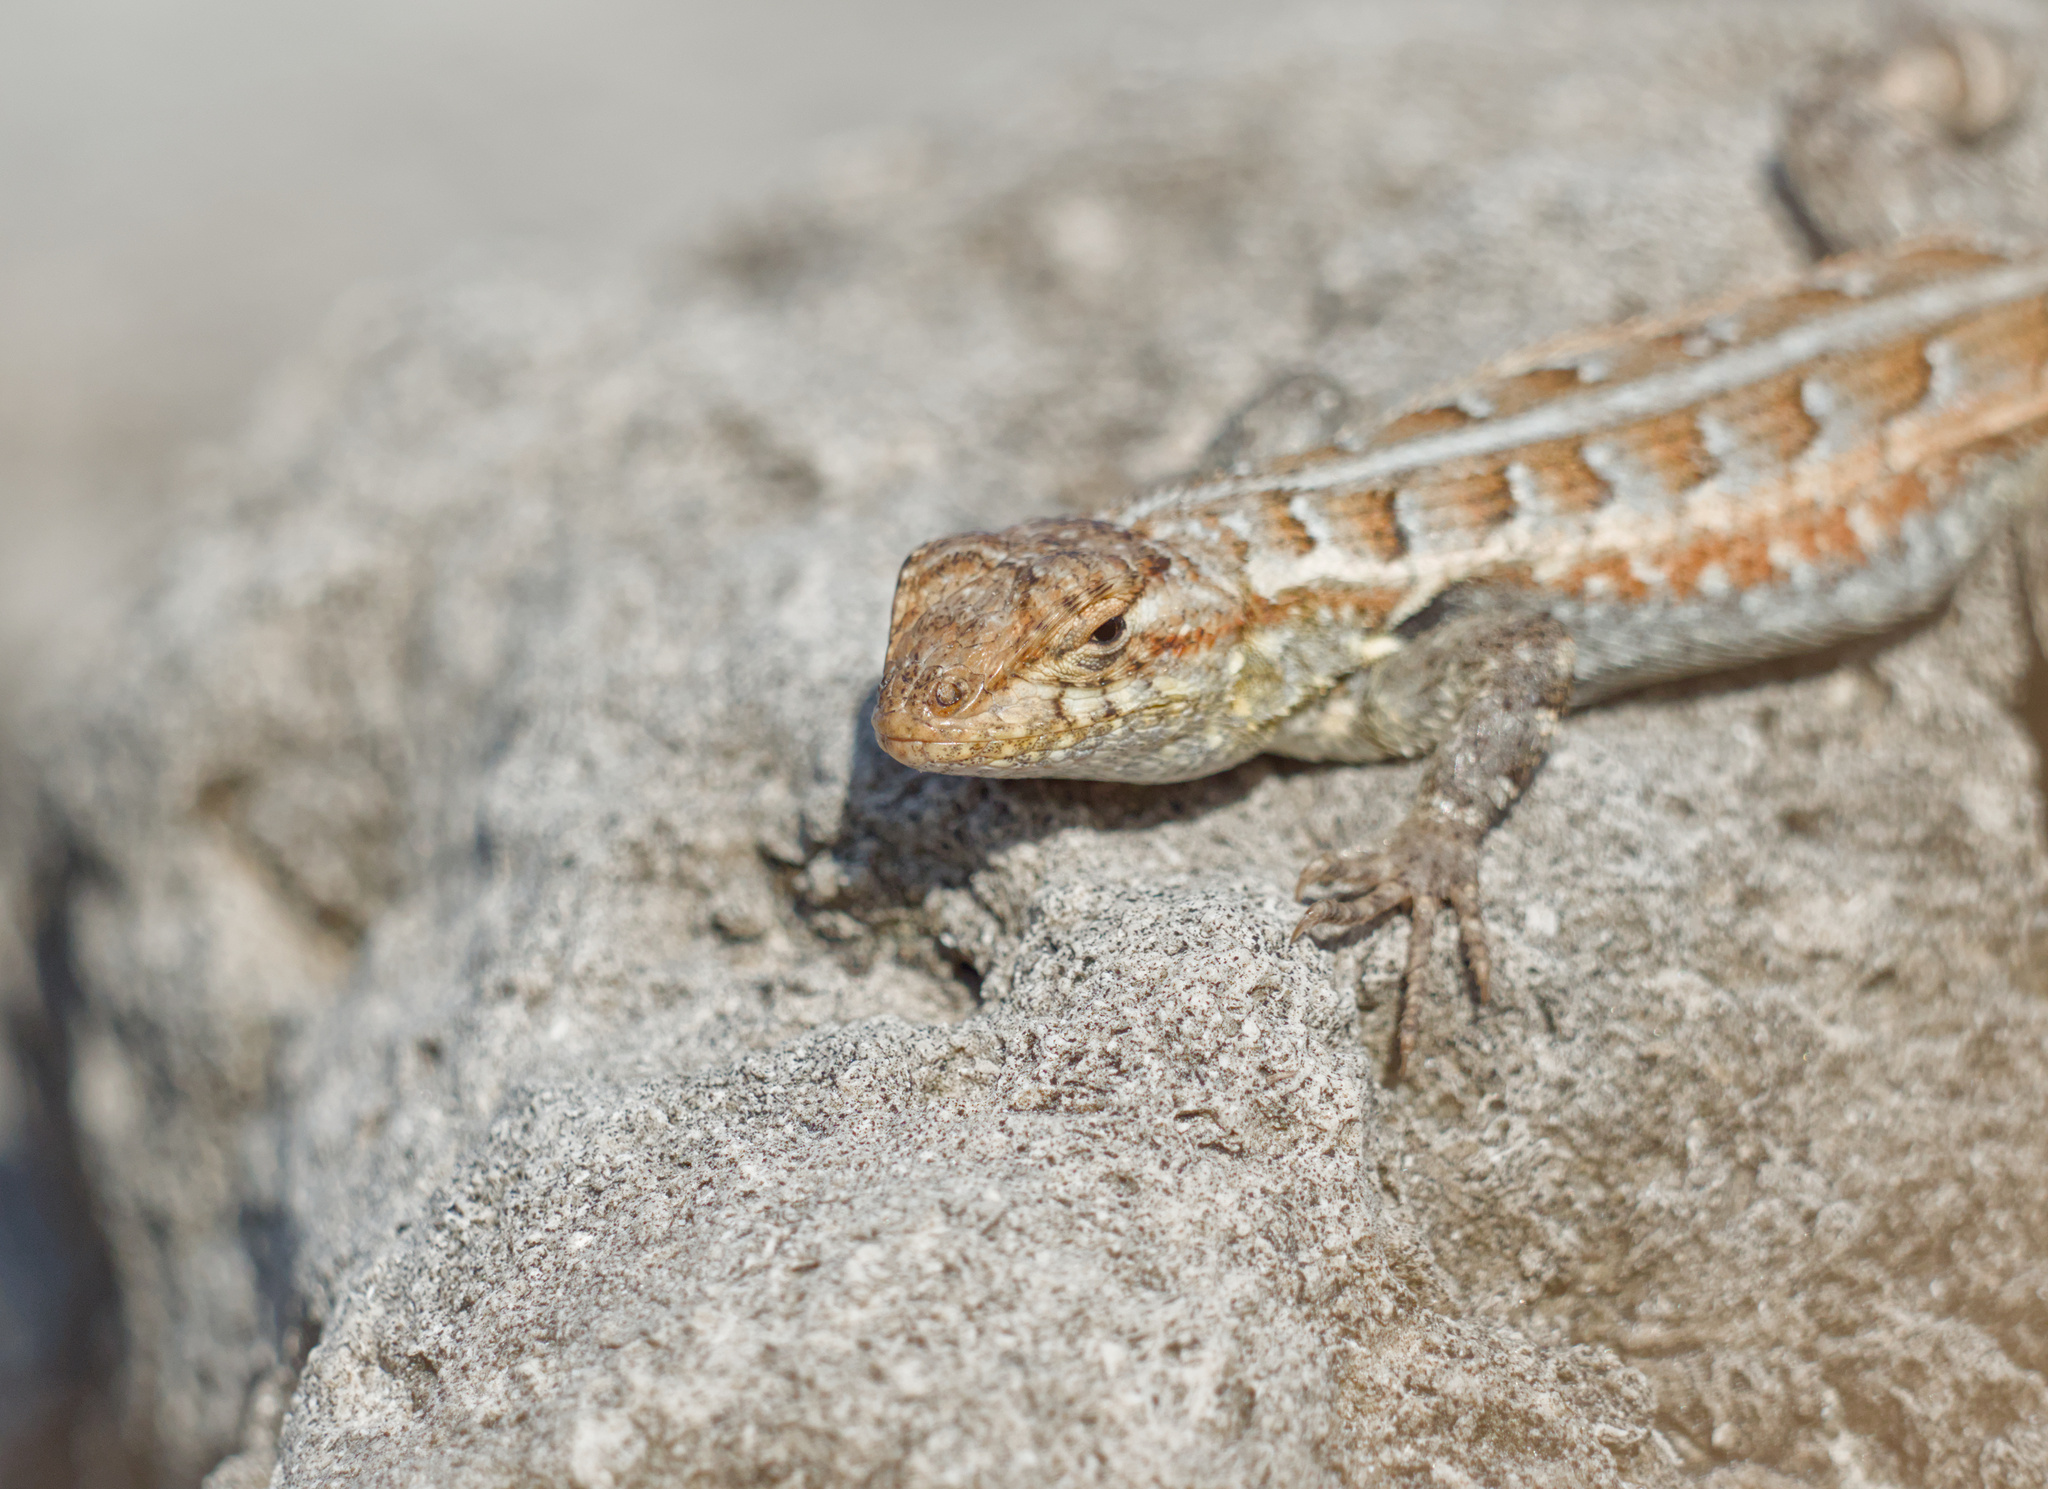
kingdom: Animalia
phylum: Chordata
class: Squamata
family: Phrynosomatidae
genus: Sceloporus
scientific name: Sceloporus cozumelae
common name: Cozumel spiny lizard
